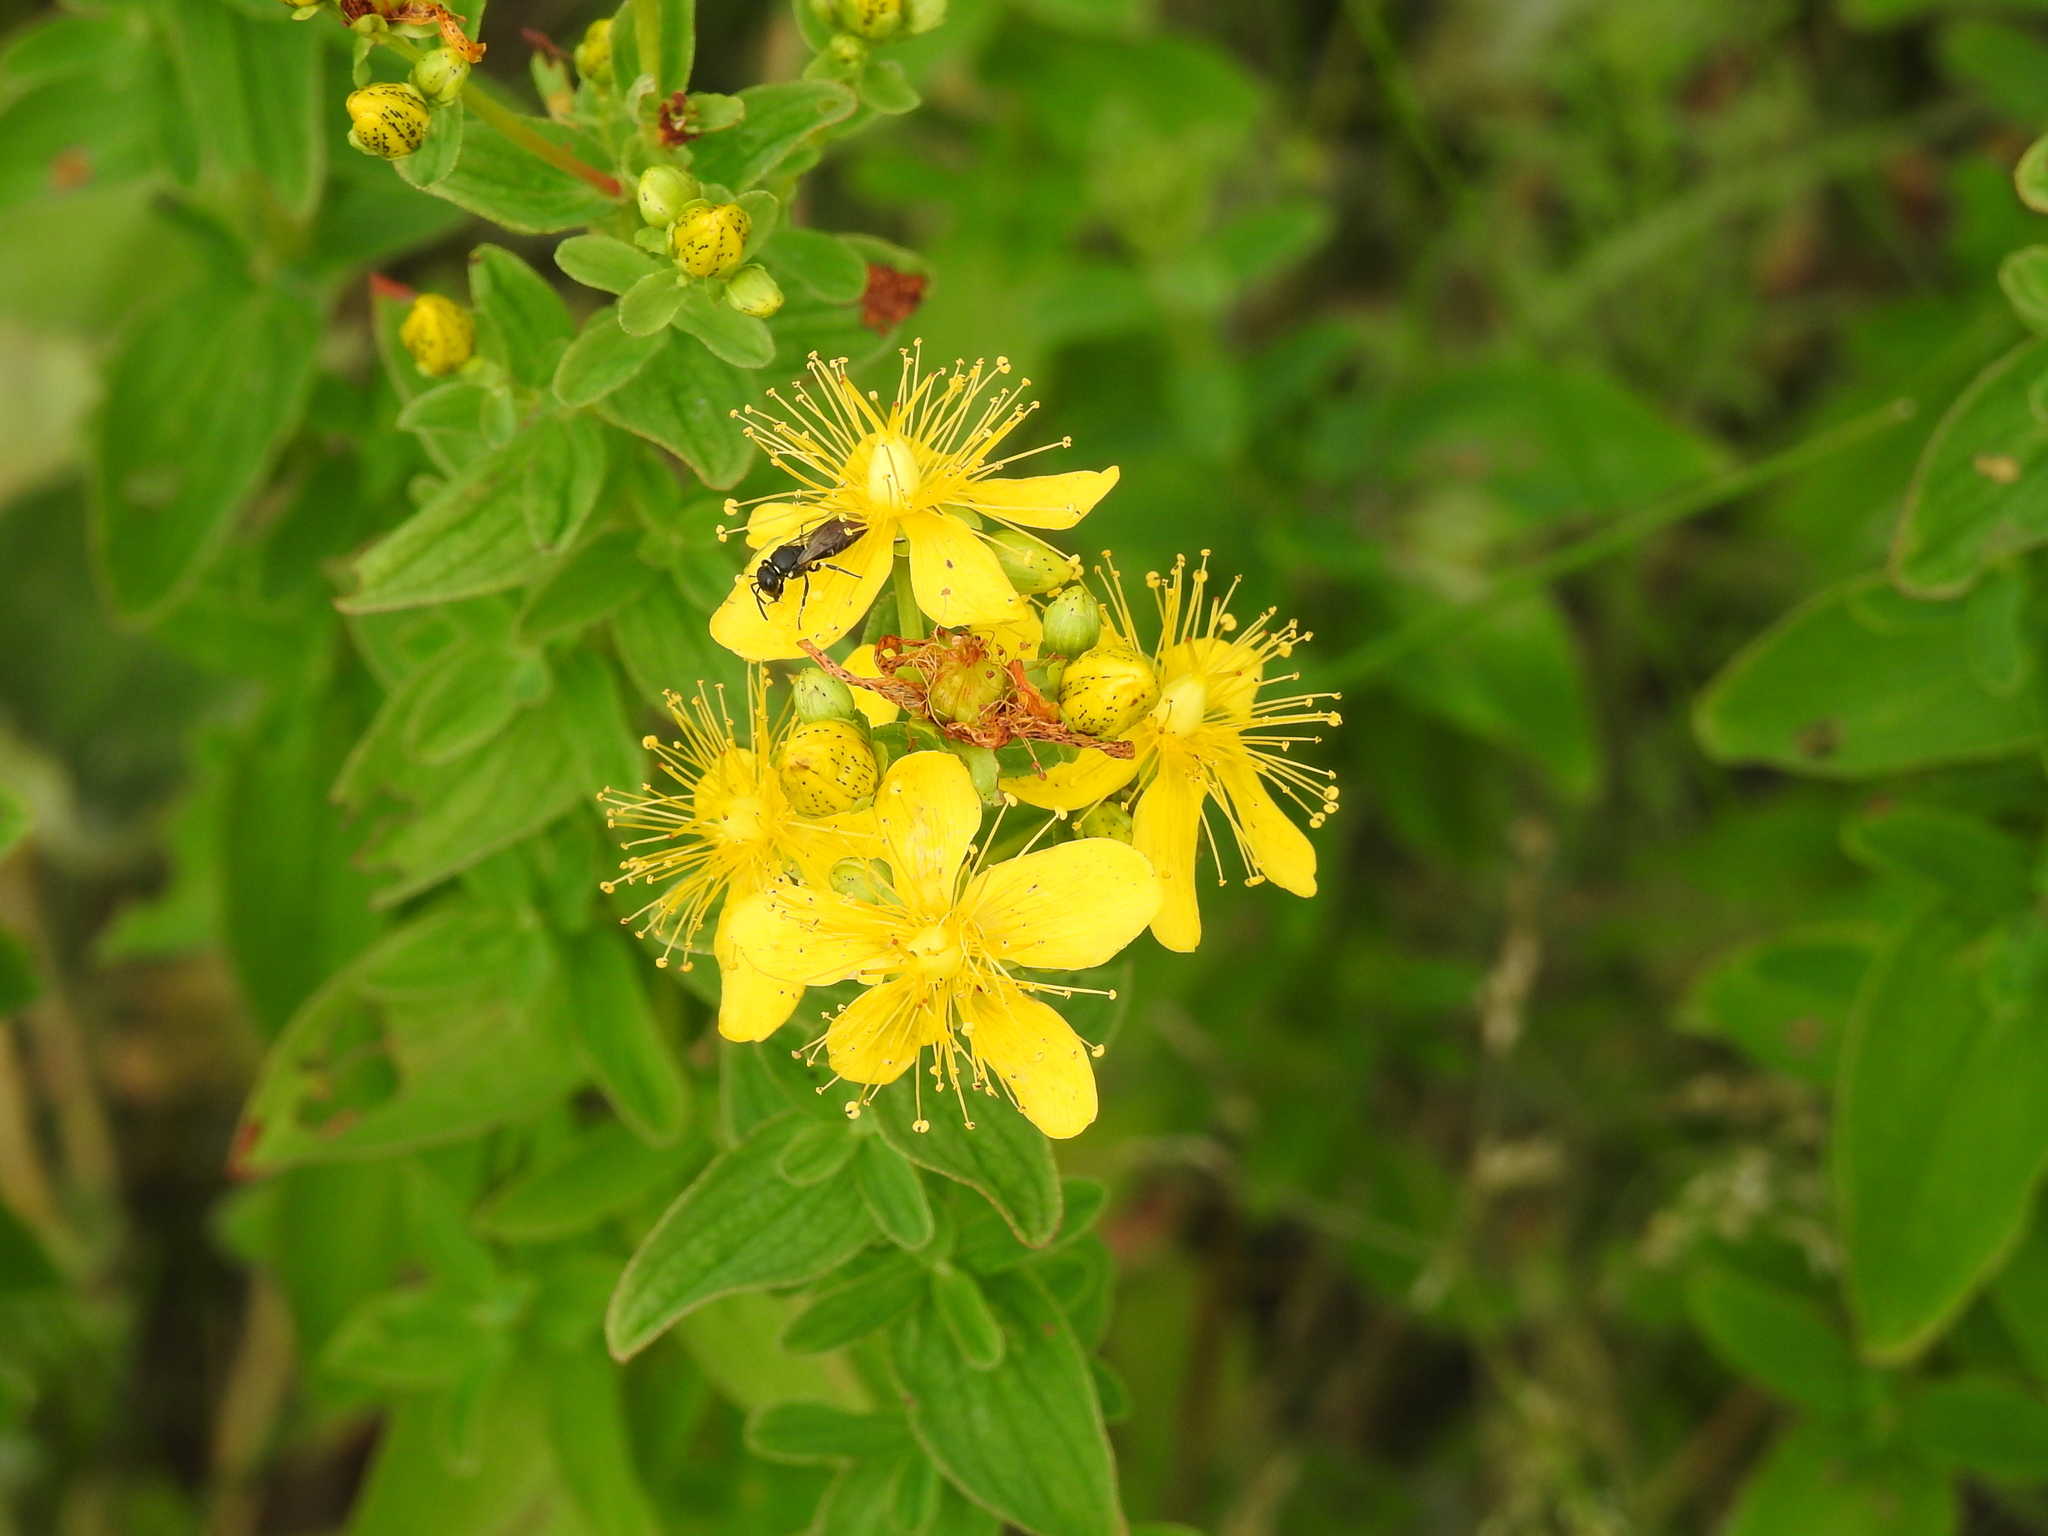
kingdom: Plantae
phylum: Tracheophyta
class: Magnoliopsida
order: Malpighiales
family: Hypericaceae
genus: Hypericum
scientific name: Hypericum maculatum
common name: Imperforate st. john's-wort
